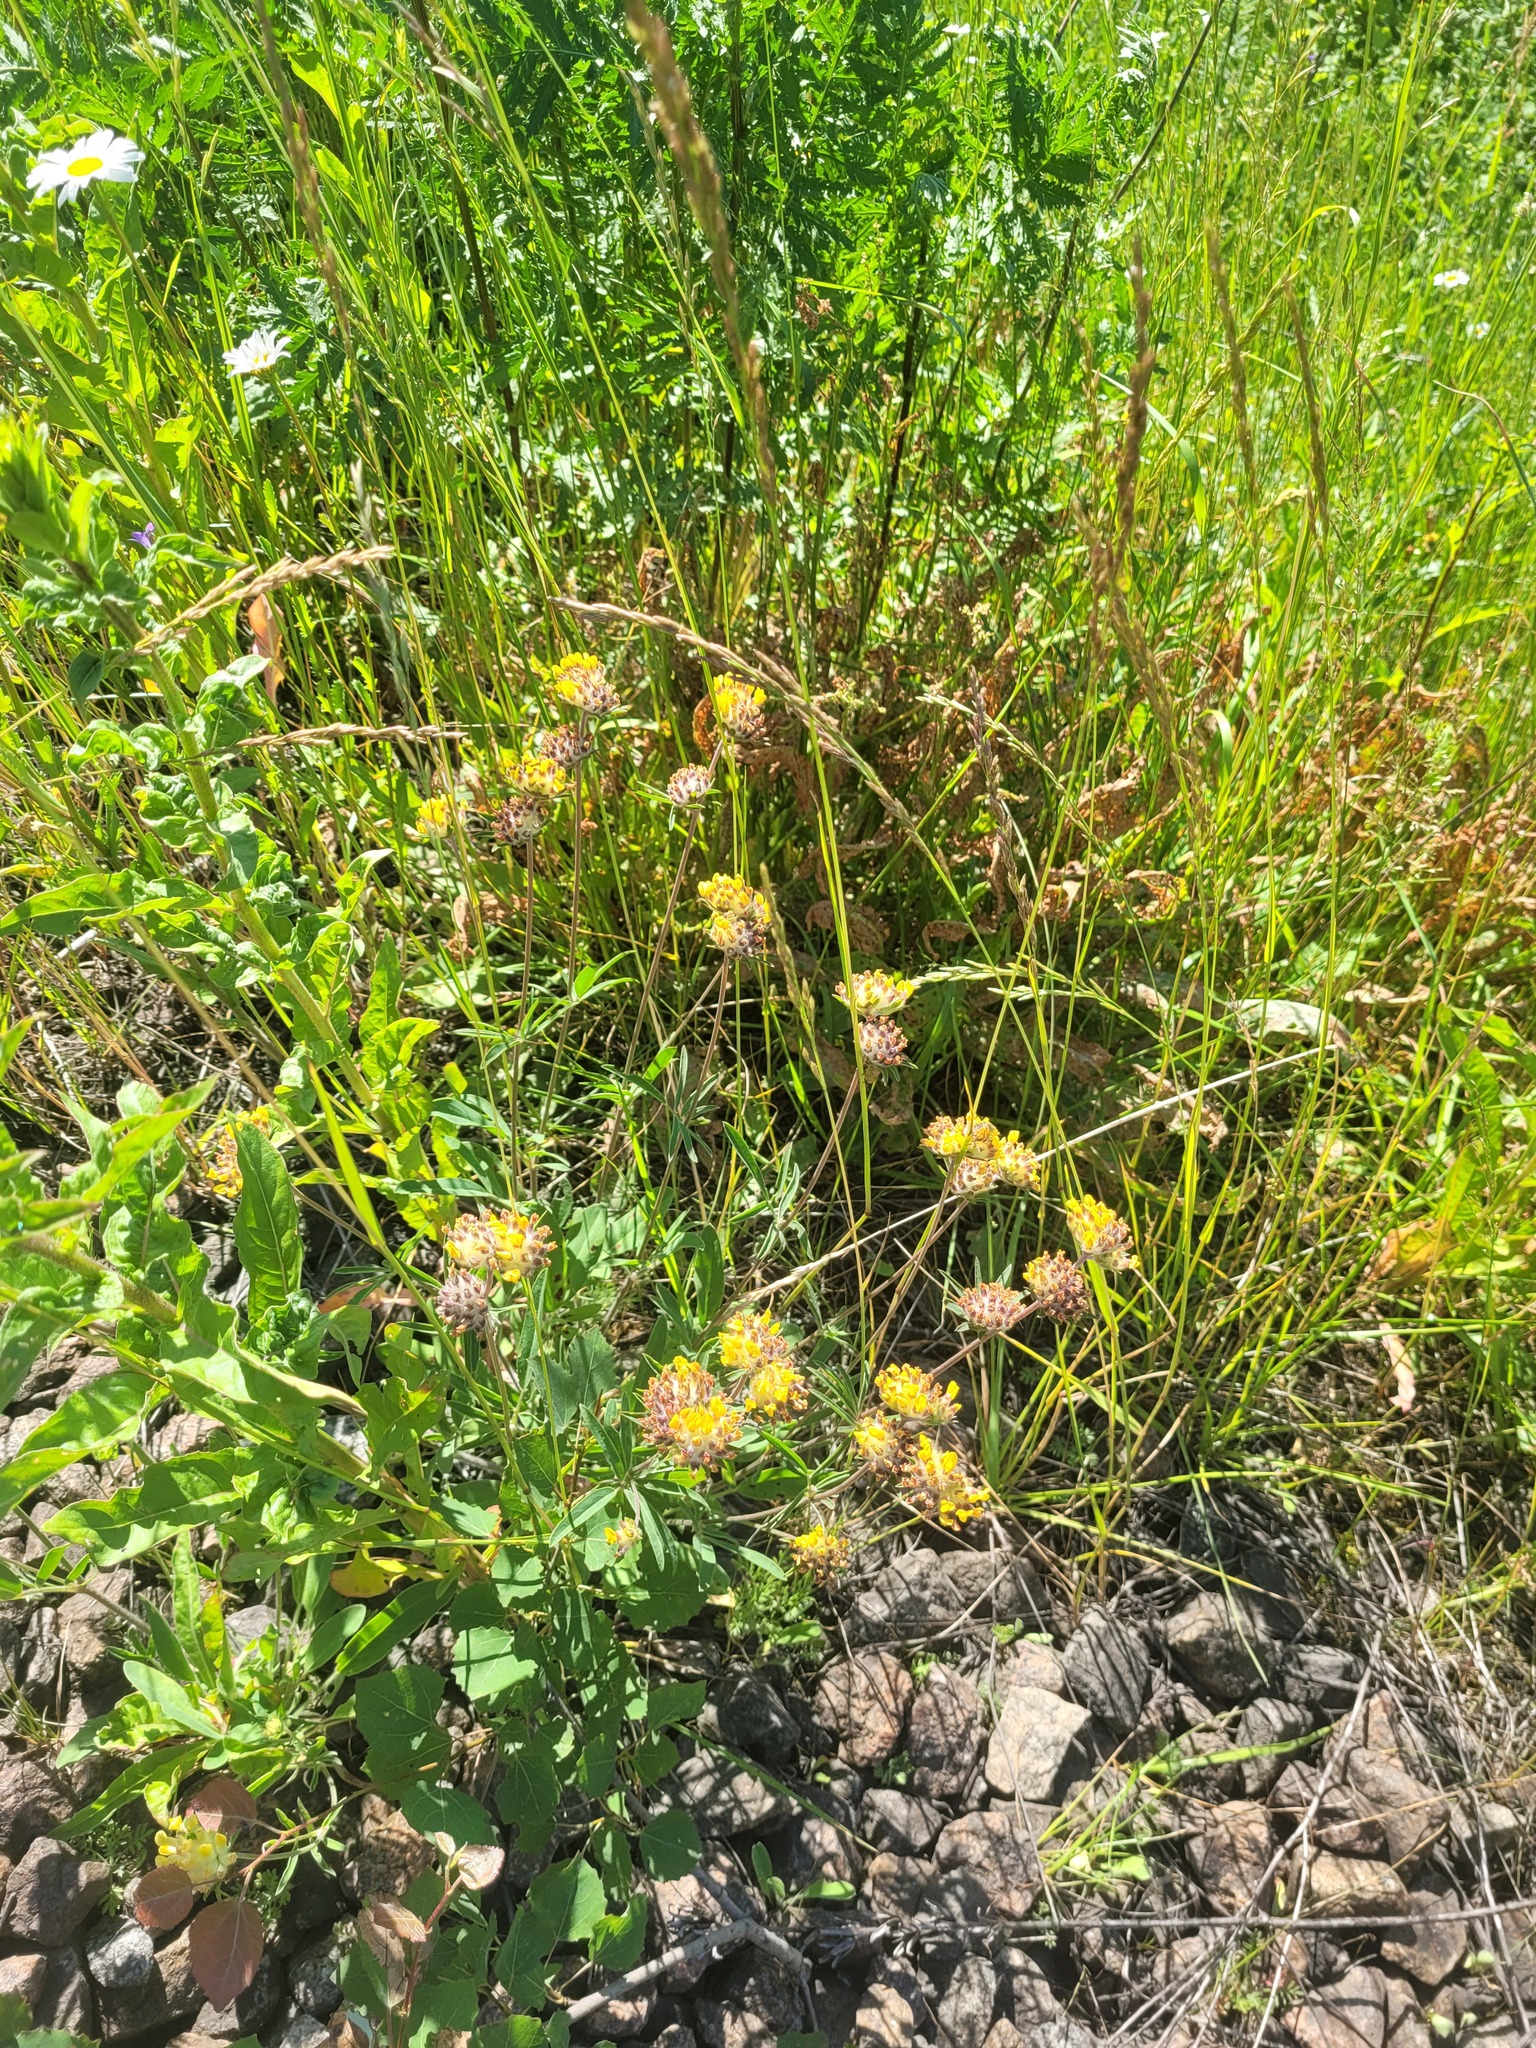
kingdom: Plantae
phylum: Tracheophyta
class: Magnoliopsida
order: Fabales
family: Fabaceae
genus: Anthyllis
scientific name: Anthyllis vulneraria
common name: Kidney vetch
